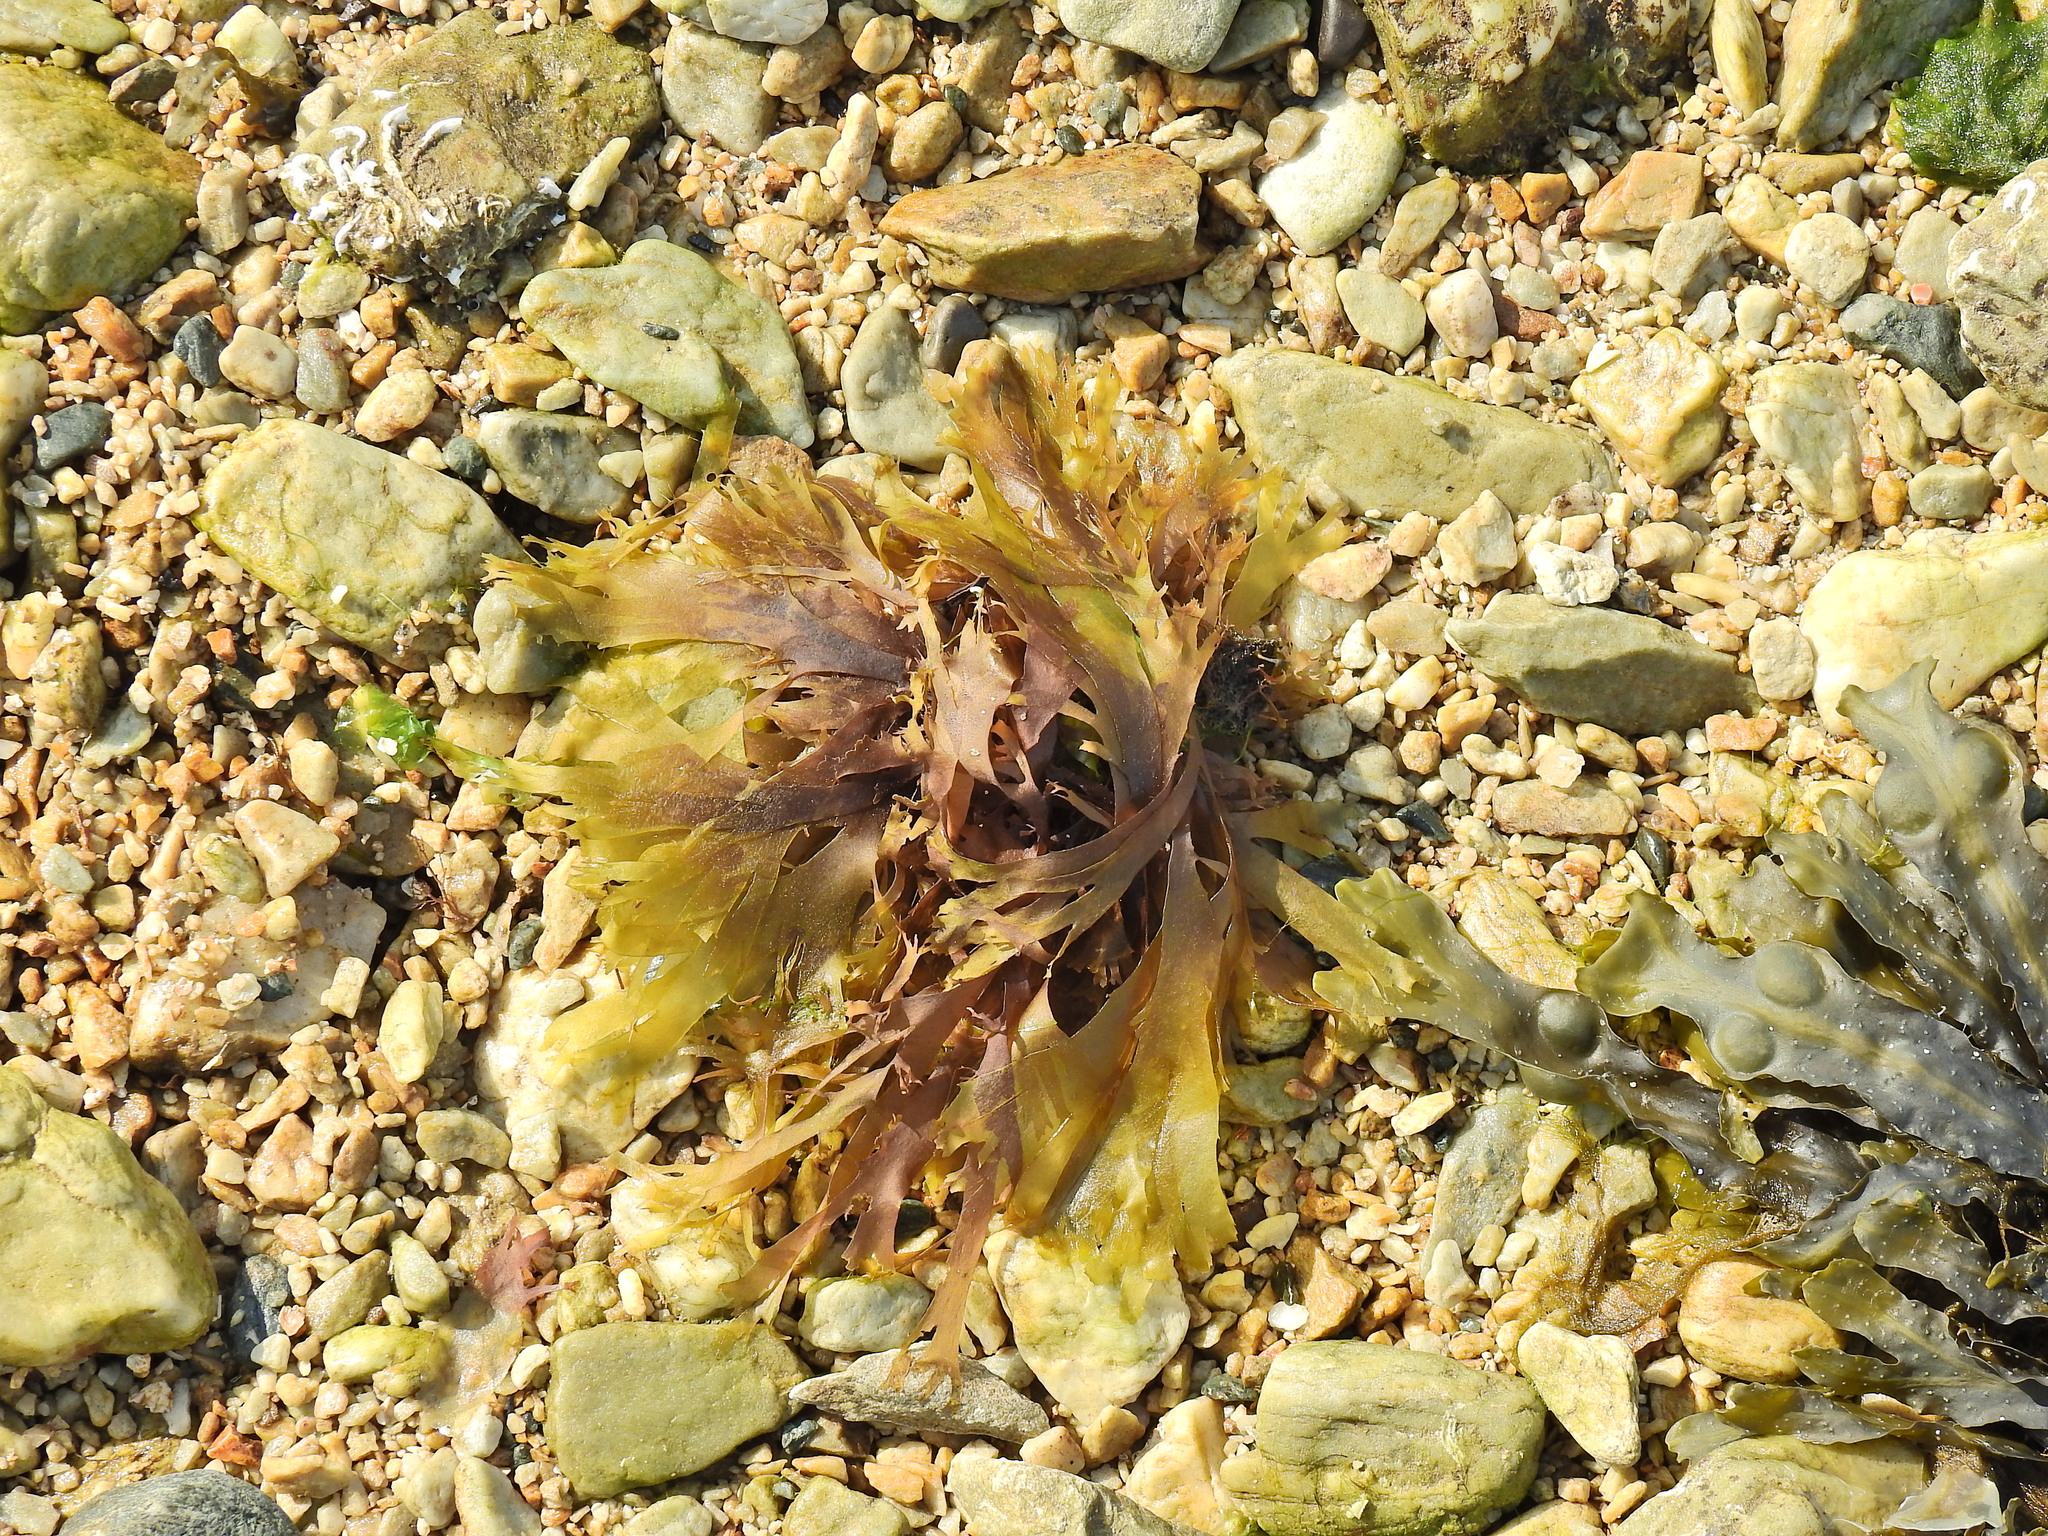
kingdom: Plantae
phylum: Rhodophyta
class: Florideophyceae
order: Palmariales
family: Palmariaceae
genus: Palmaria
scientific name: Palmaria palmata
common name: Dulse
